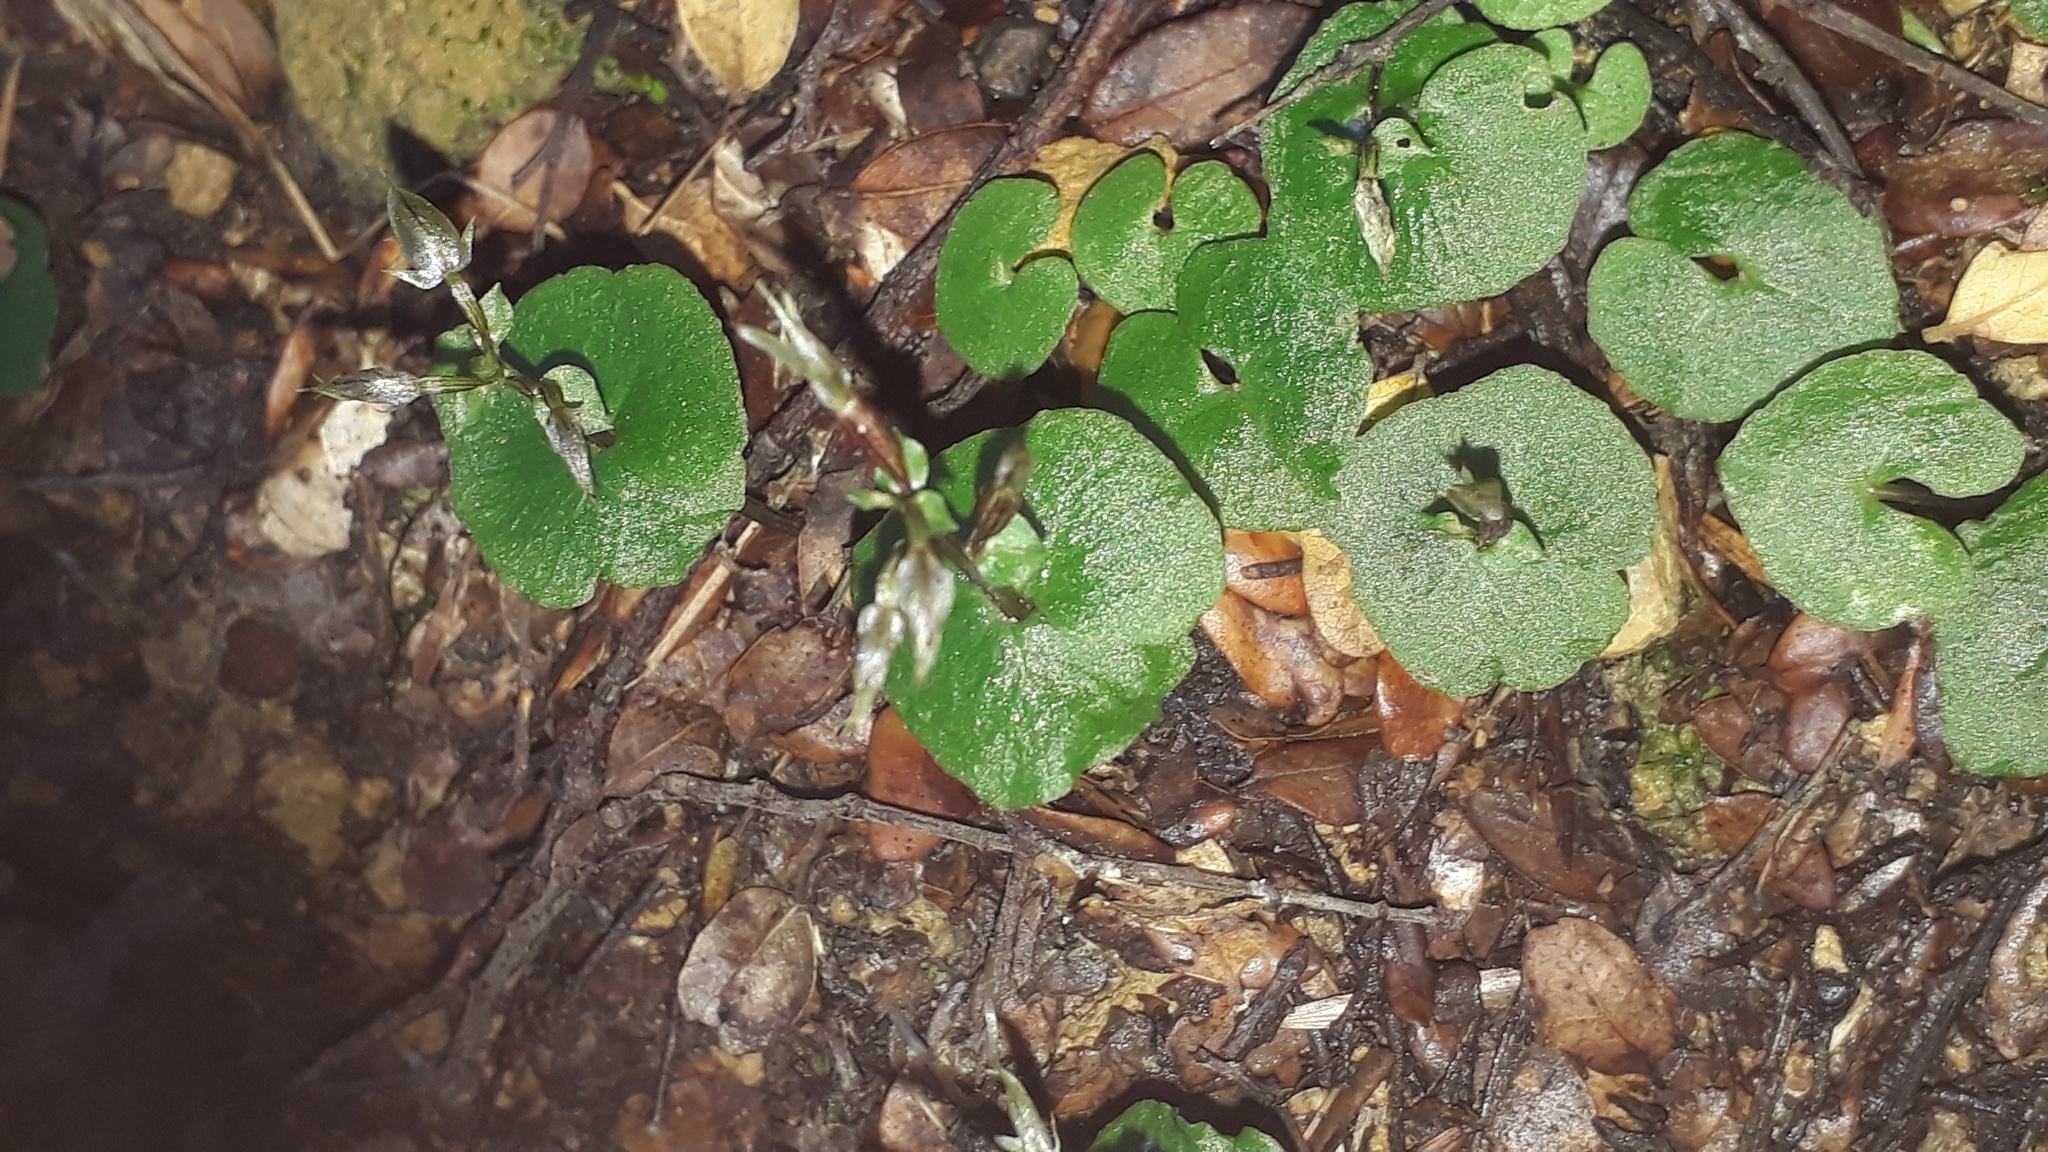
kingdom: Plantae
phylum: Tracheophyta
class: Liliopsida
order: Asparagales
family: Orchidaceae
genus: Acianthus
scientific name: Acianthus sinclairii
